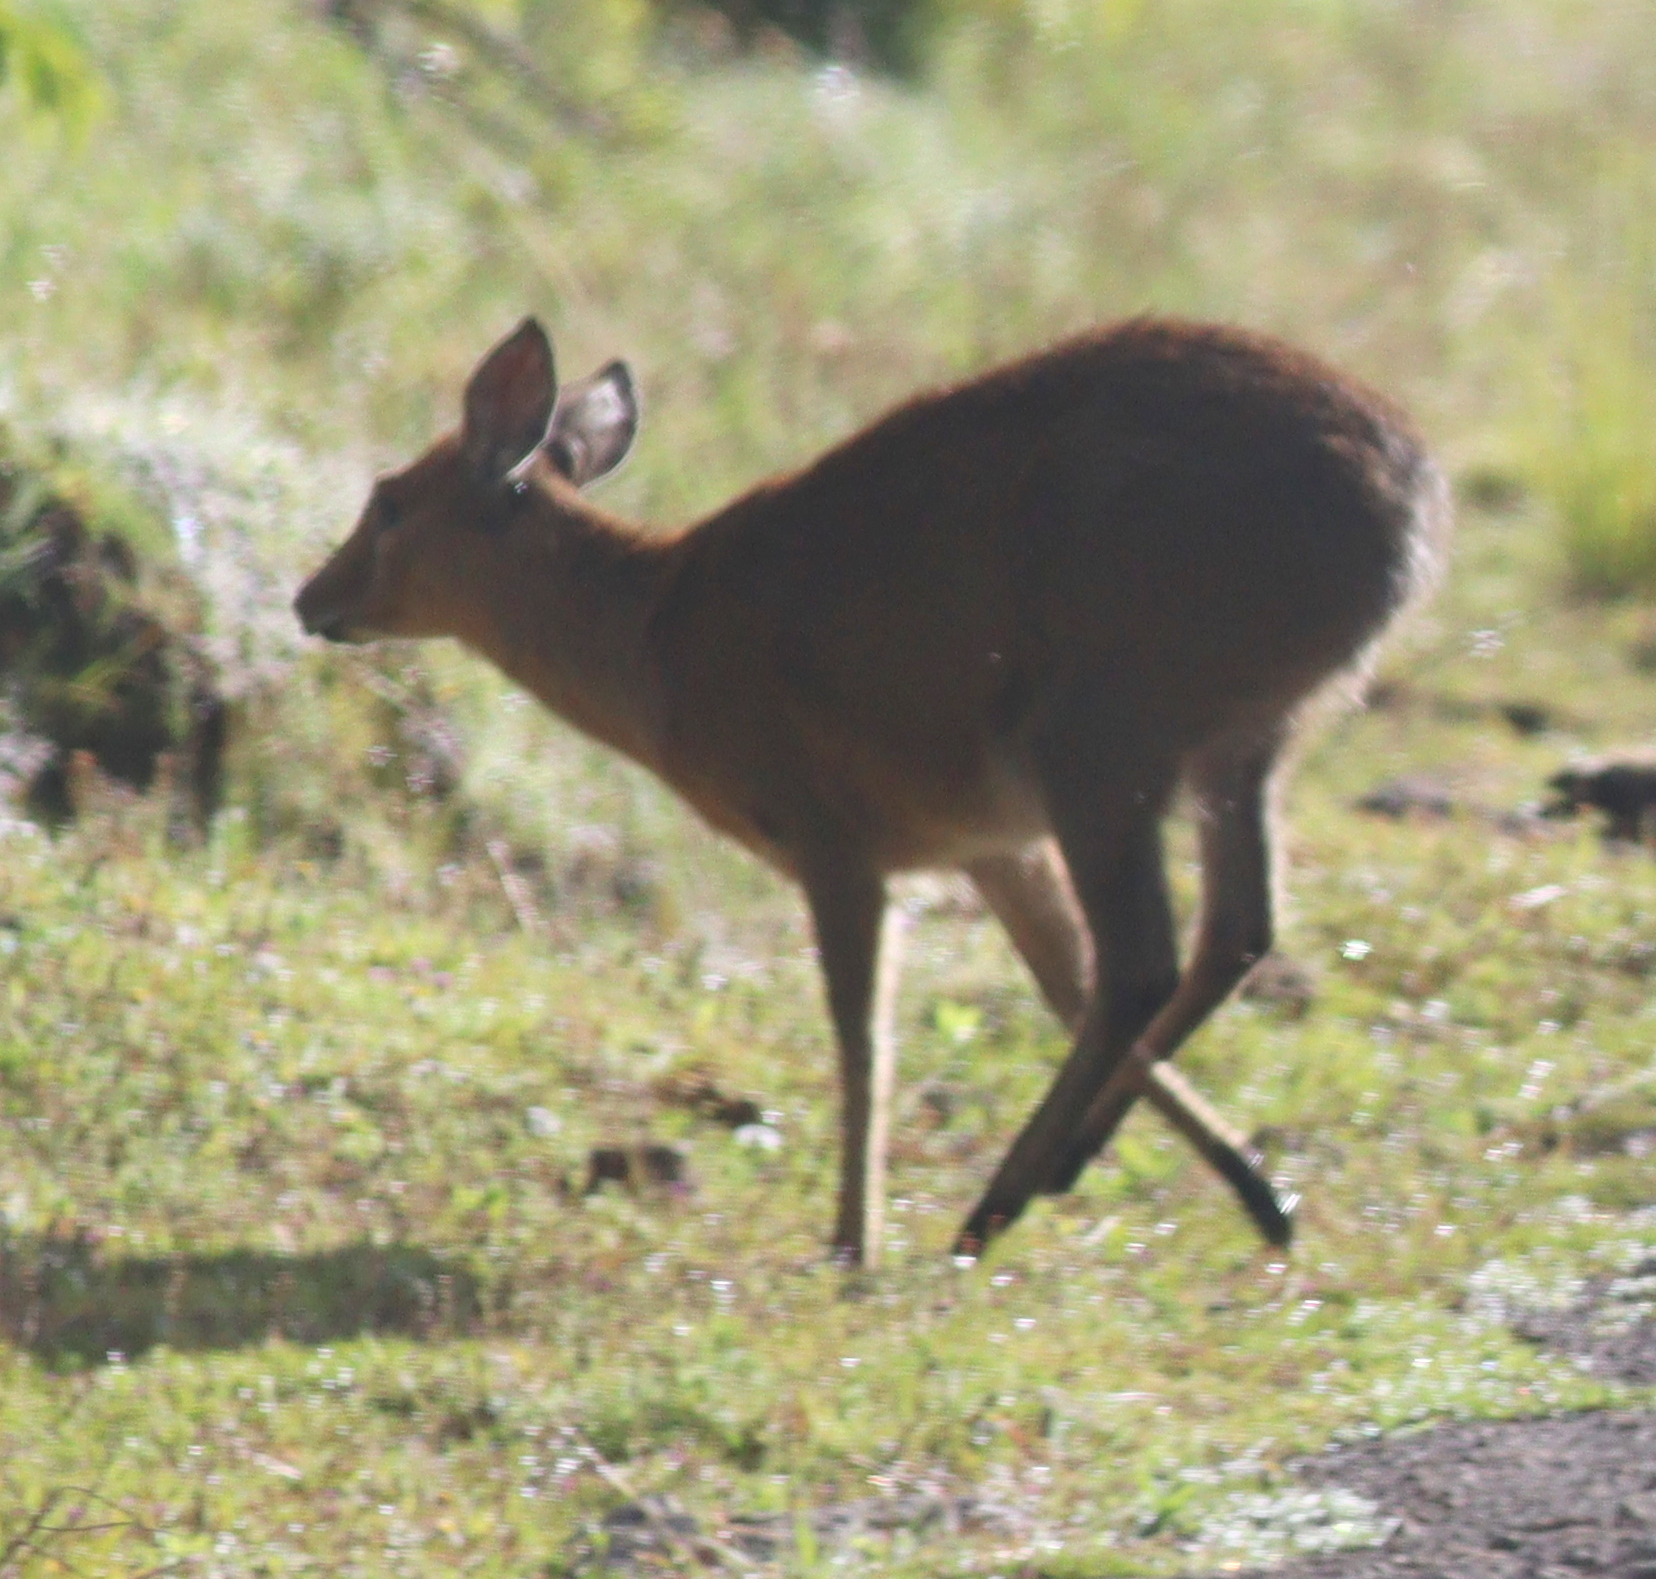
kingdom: Animalia
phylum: Chordata
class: Mammalia
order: Artiodactyla
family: Bovidae
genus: Sylvicapra
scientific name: Sylvicapra grimmia
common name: Bush duiker
